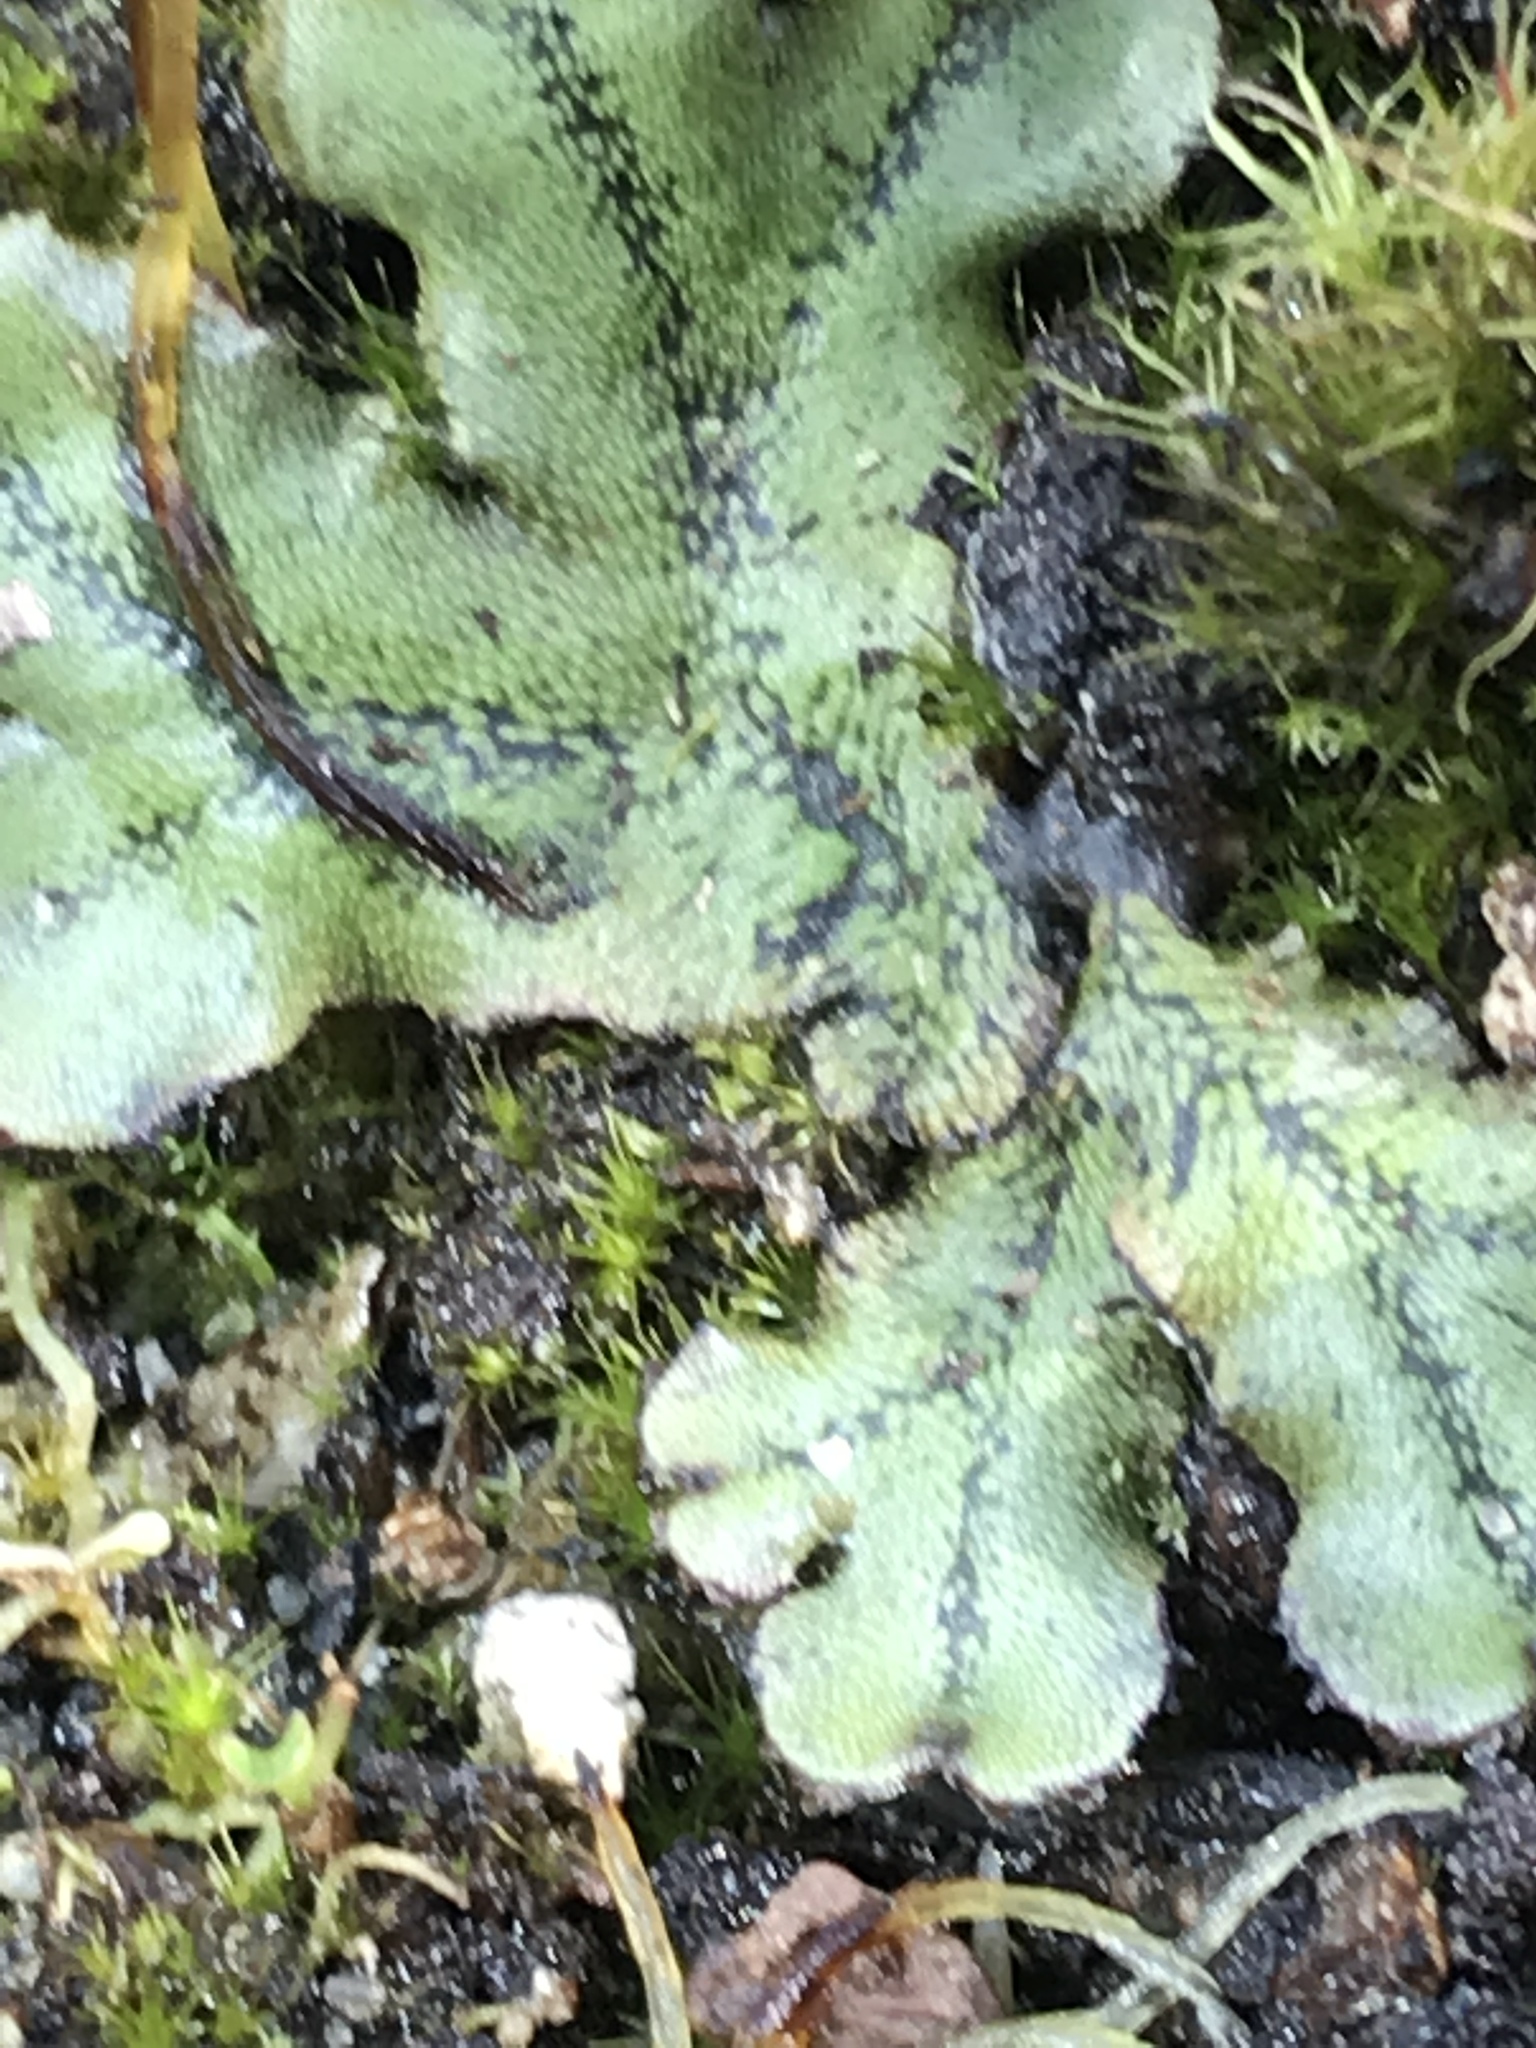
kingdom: Plantae
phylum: Marchantiophyta
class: Marchantiopsida
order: Marchantiales
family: Marchantiaceae
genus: Marchantia
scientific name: Marchantia polymorpha
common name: Common liverwort
